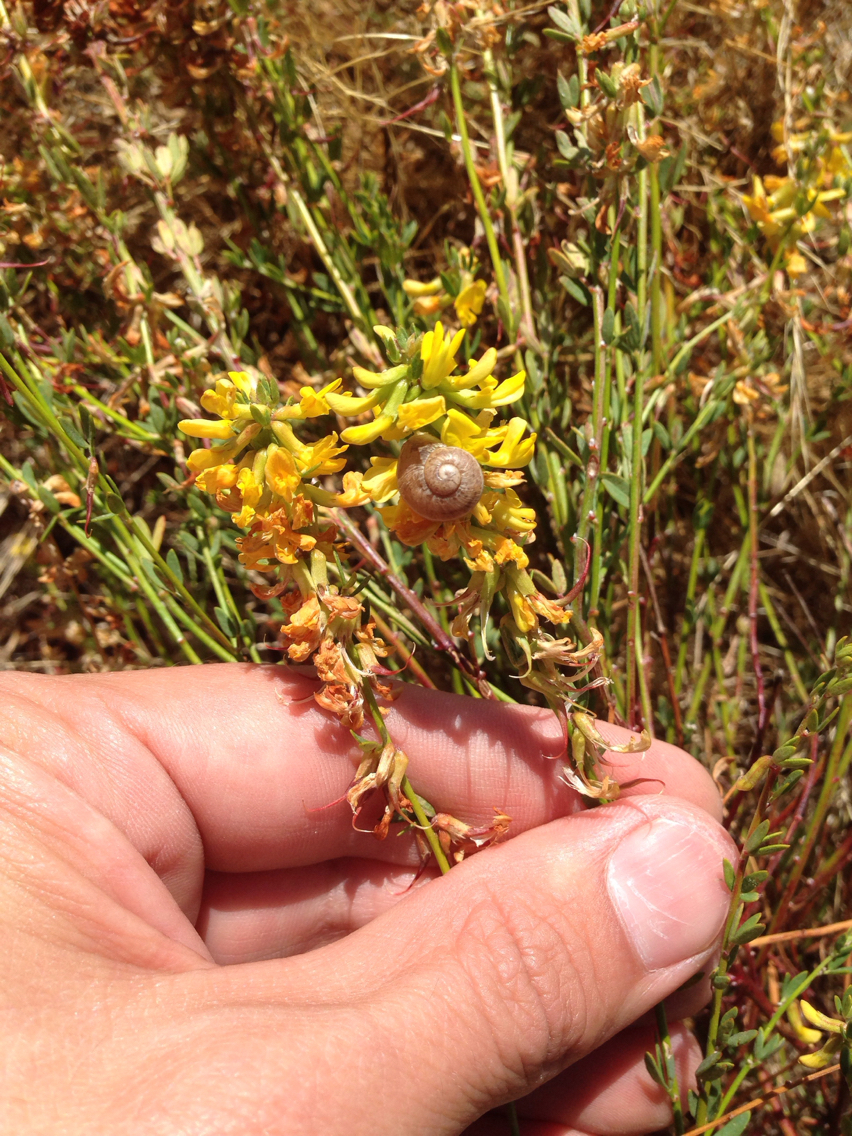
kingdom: Plantae
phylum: Tracheophyta
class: Magnoliopsida
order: Fabales
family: Fabaceae
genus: Acmispon
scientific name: Acmispon glaber
